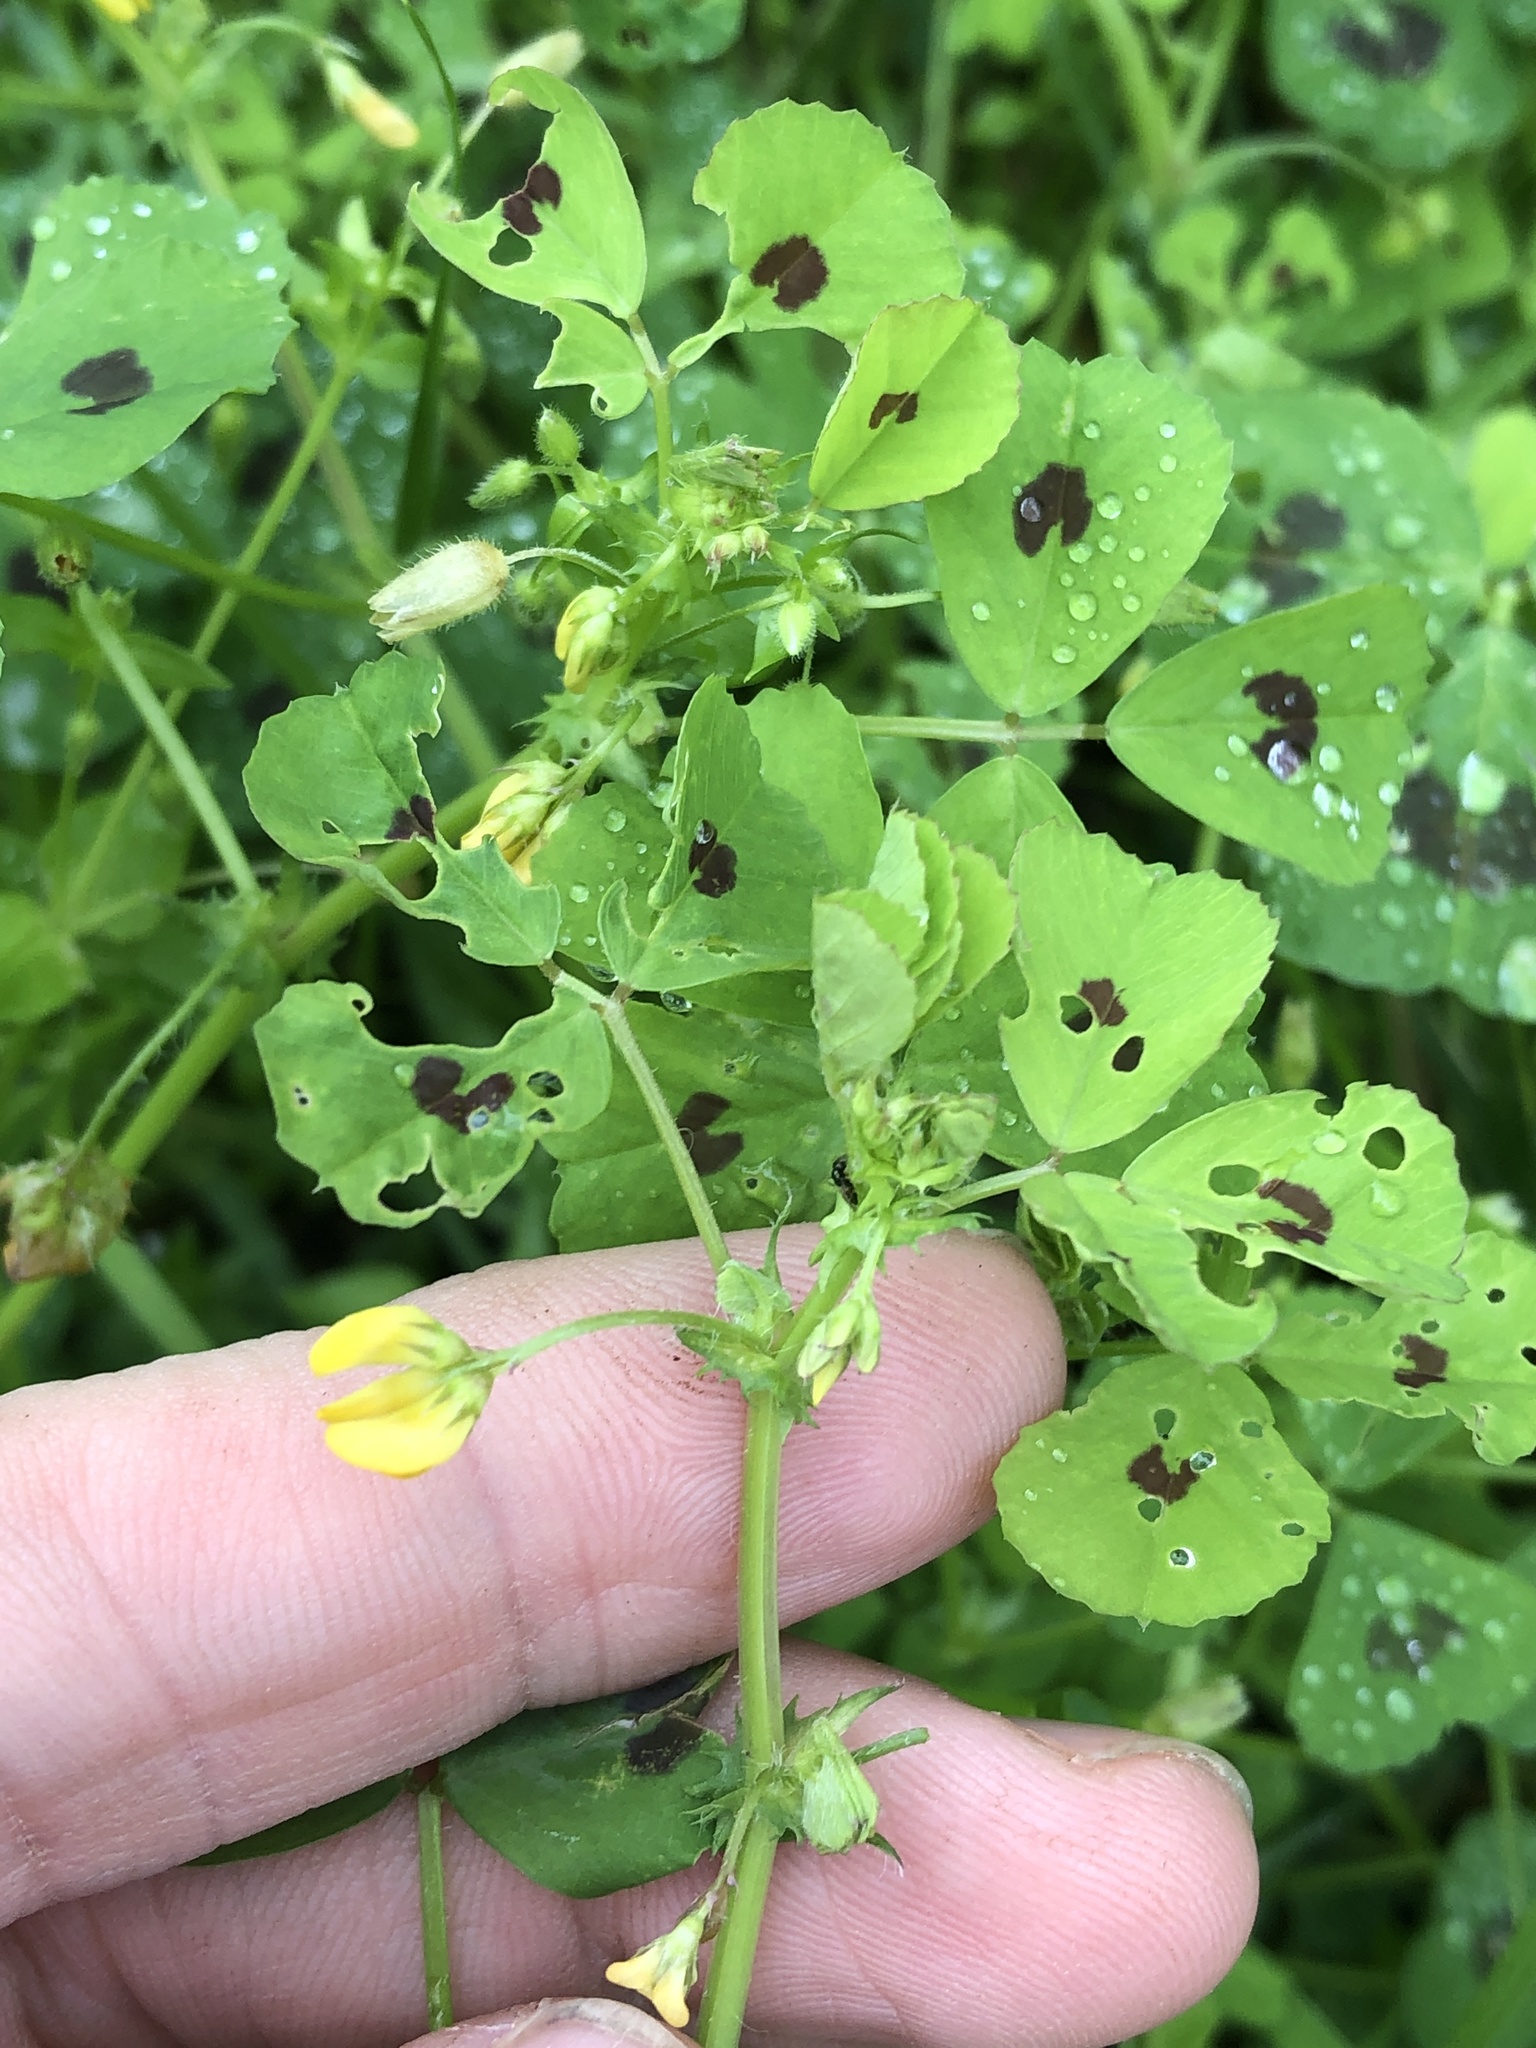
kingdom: Plantae
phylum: Tracheophyta
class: Magnoliopsida
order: Fabales
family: Fabaceae
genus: Medicago
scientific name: Medicago arabica
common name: Spotted medick
